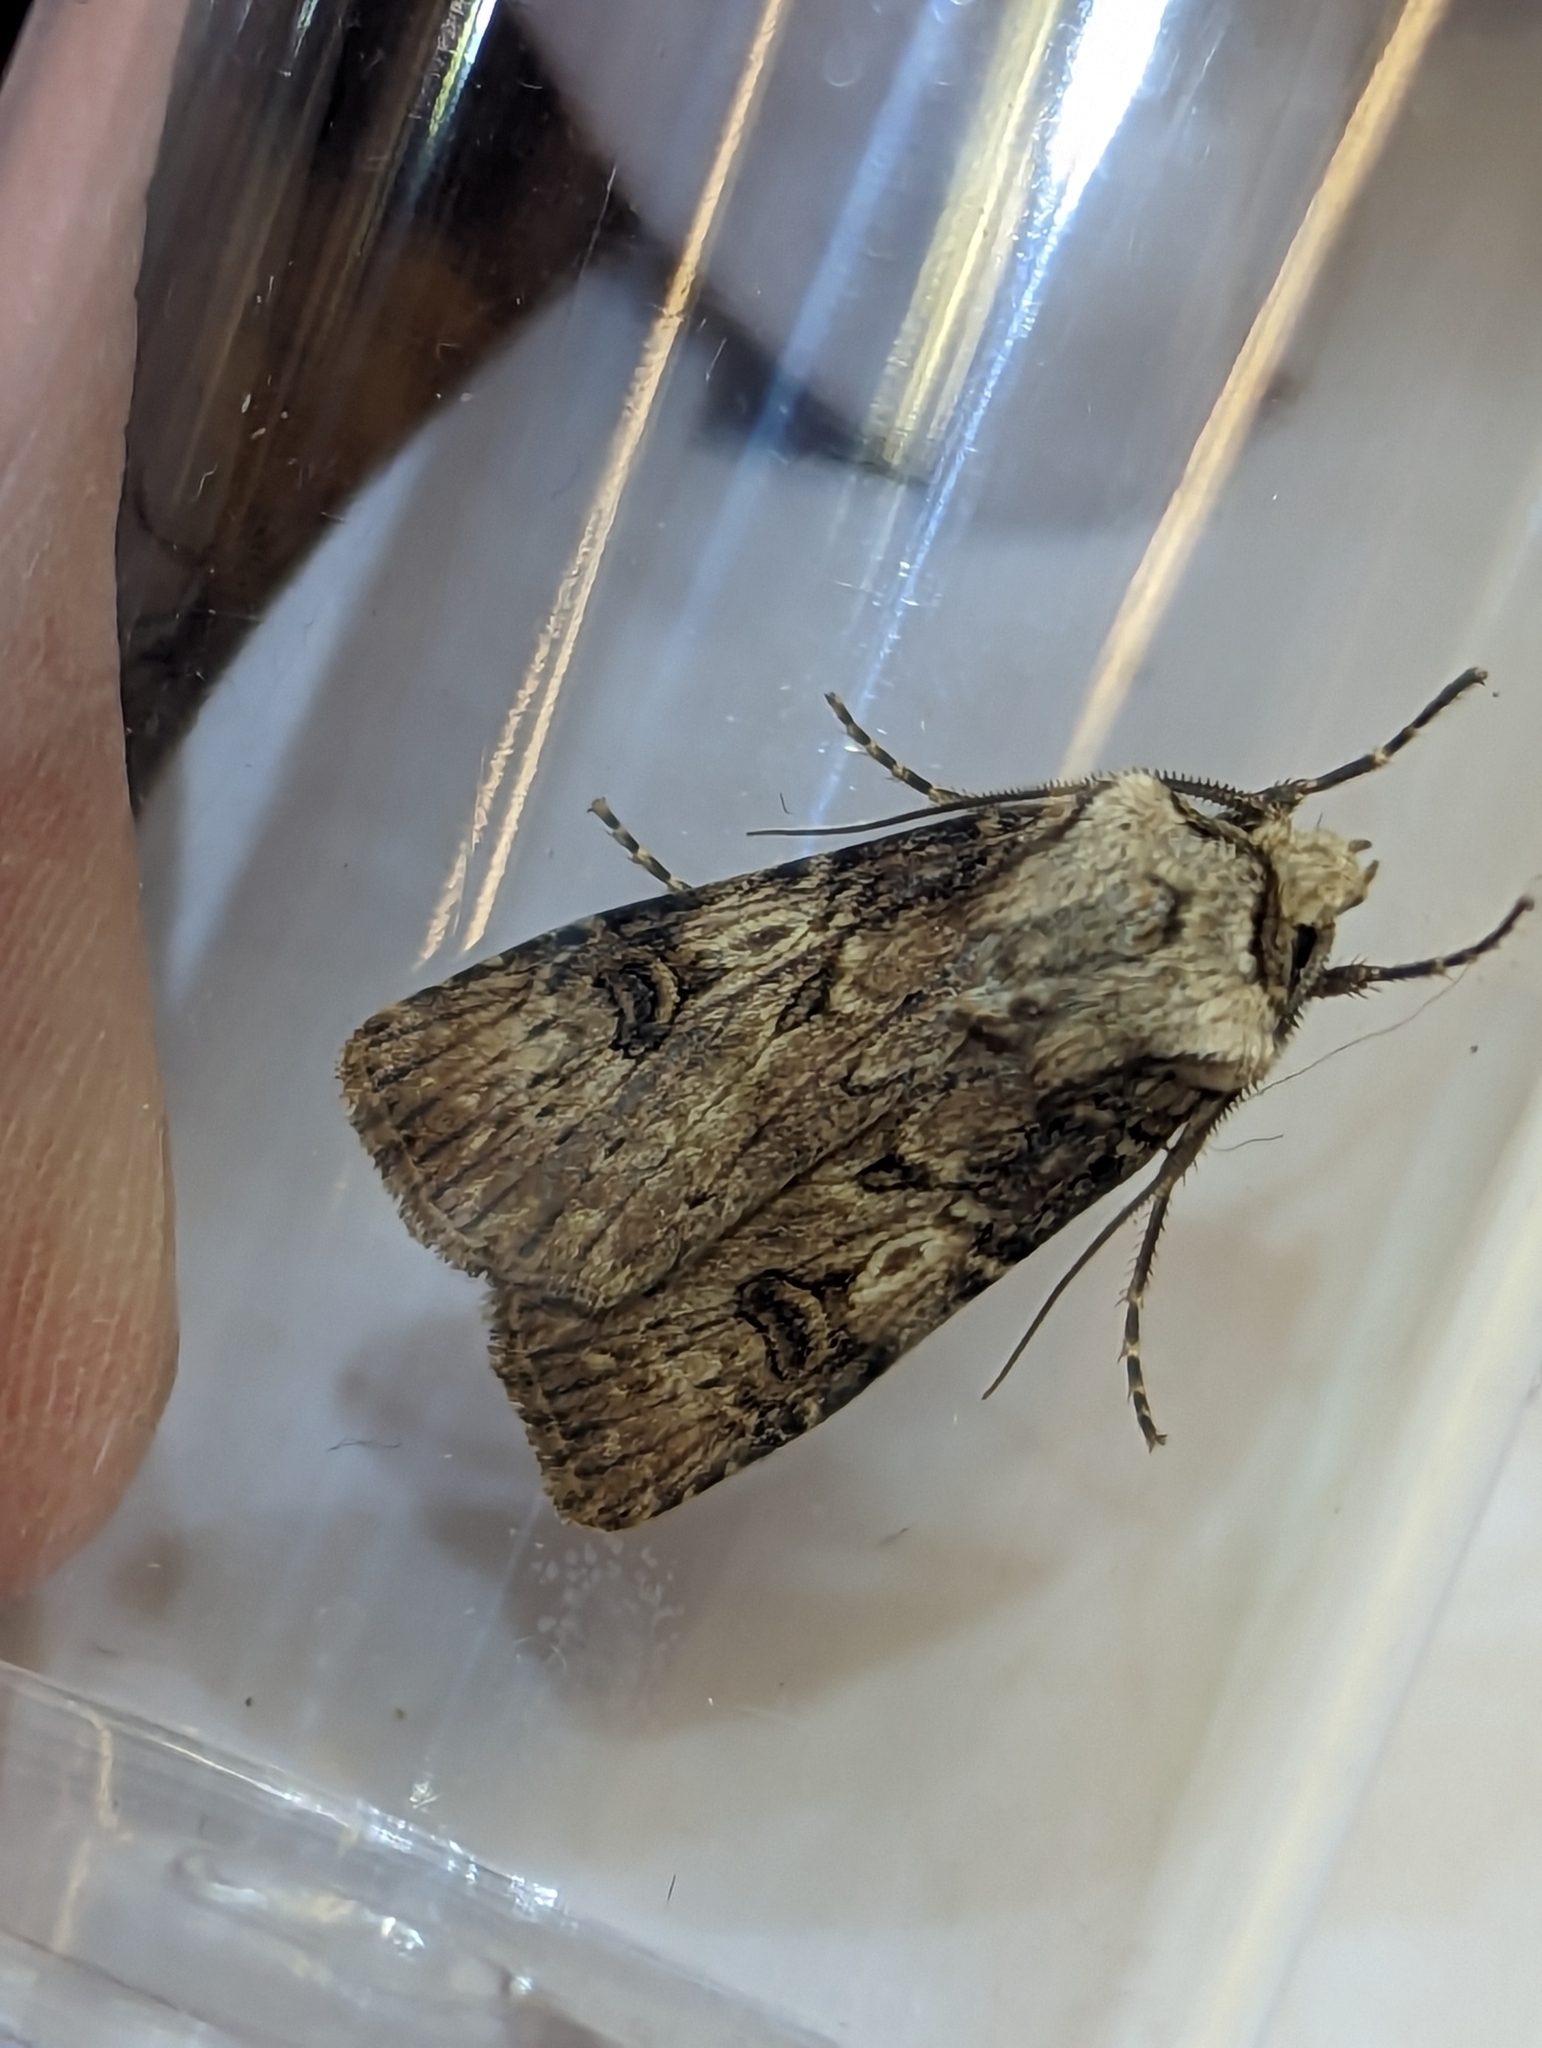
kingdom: Animalia
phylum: Arthropoda
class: Insecta
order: Lepidoptera
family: Noctuidae
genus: Agrotis
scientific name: Agrotis puta
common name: Shuttle-shaped dart
